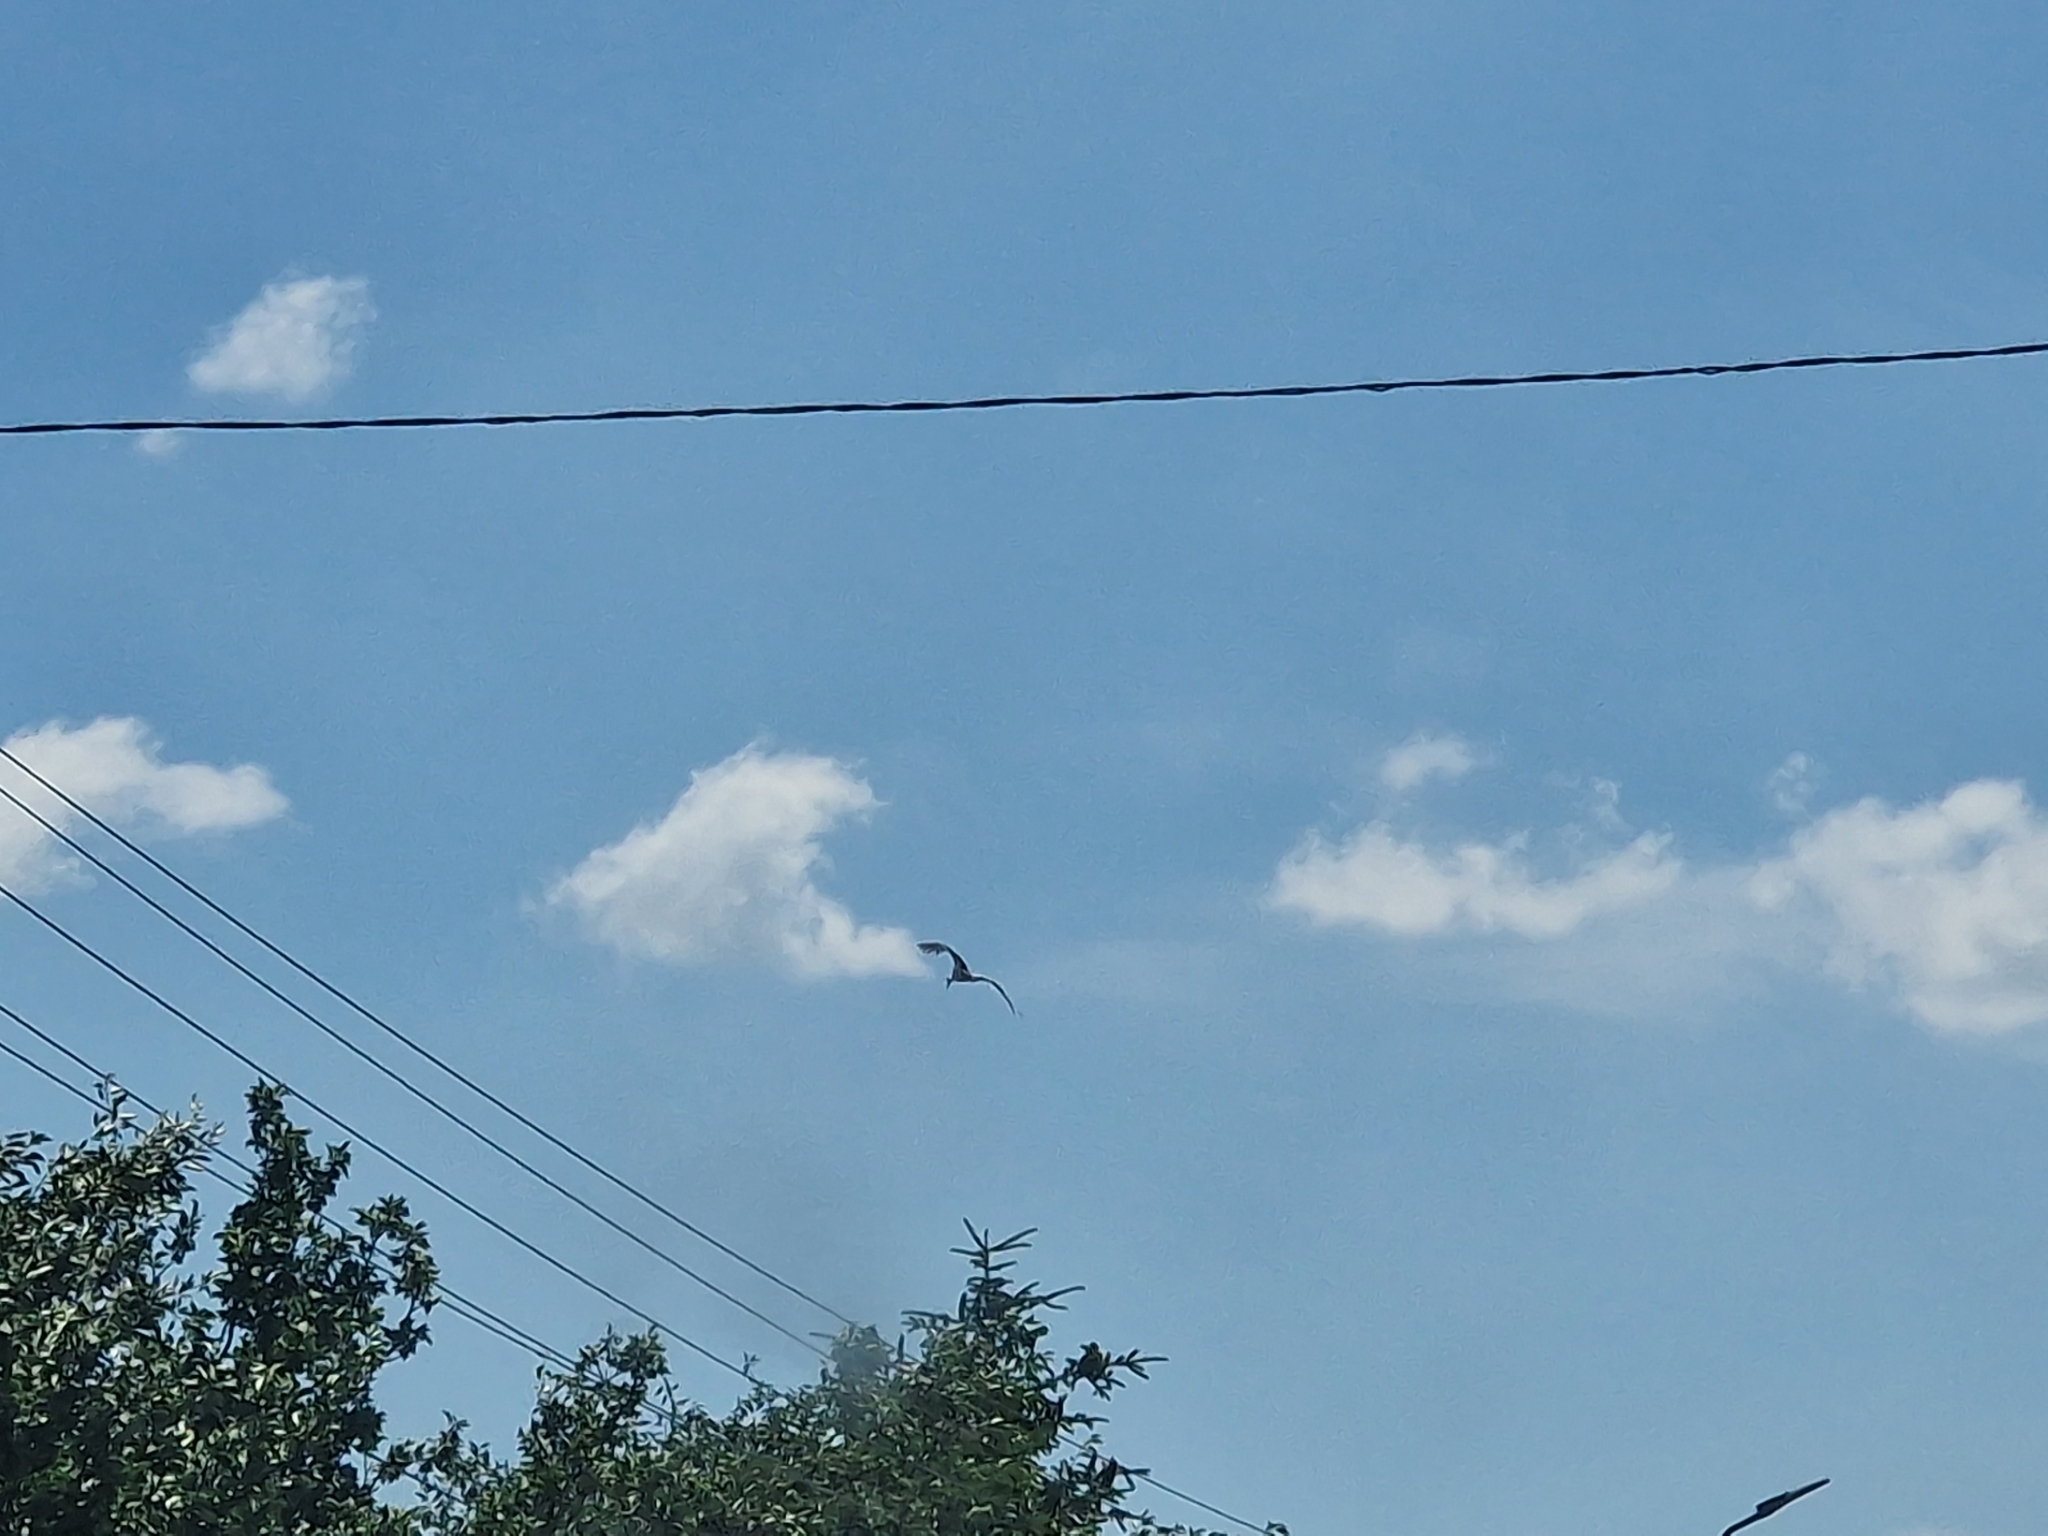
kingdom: Animalia
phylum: Chordata
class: Aves
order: Ciconiiformes
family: Ciconiidae
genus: Ciconia
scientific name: Ciconia ciconia
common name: White stork
